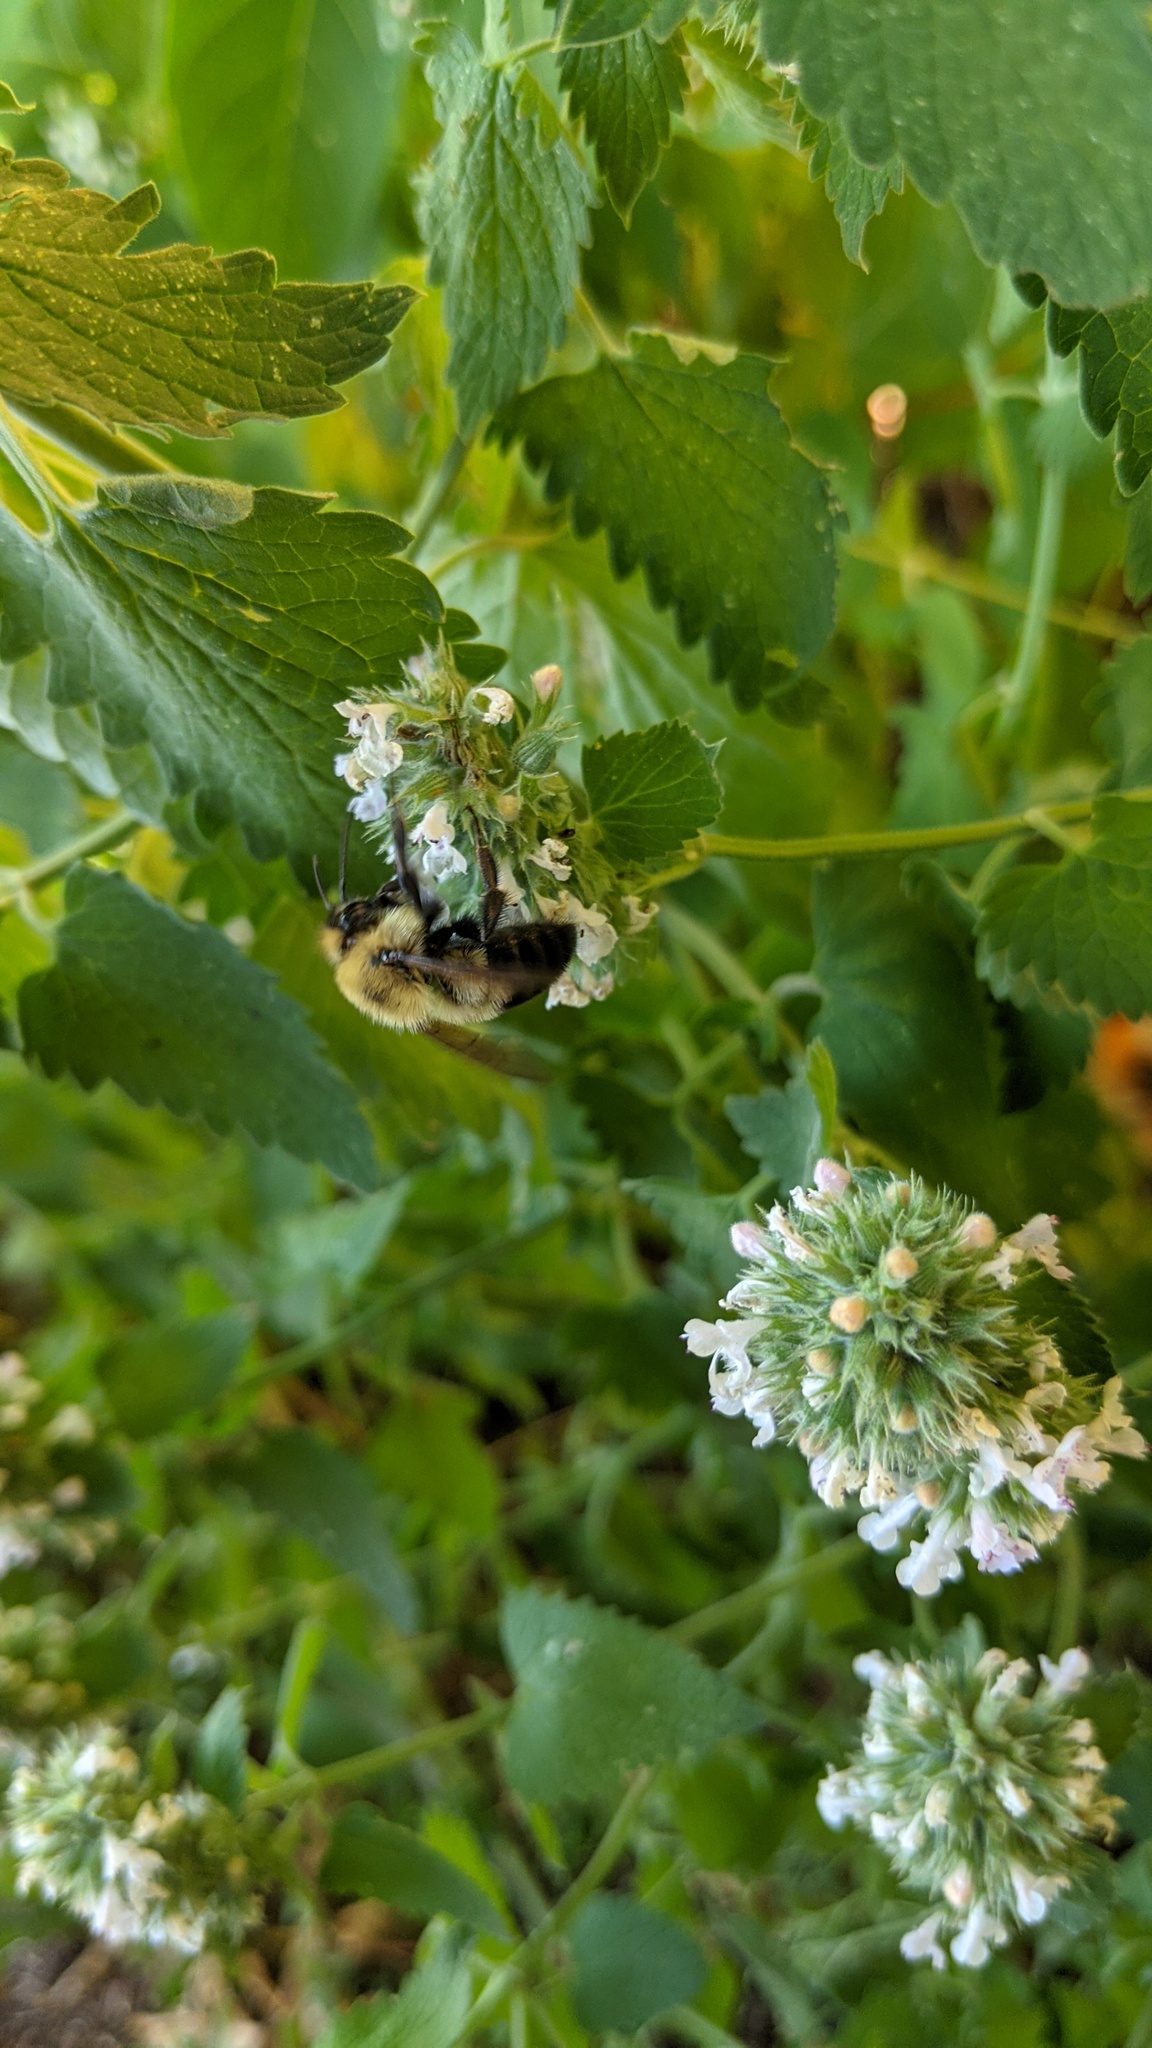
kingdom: Animalia
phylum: Arthropoda
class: Insecta
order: Hymenoptera
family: Apidae
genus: Bombus
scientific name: Bombus bimaculatus
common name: Two-spotted bumble bee
